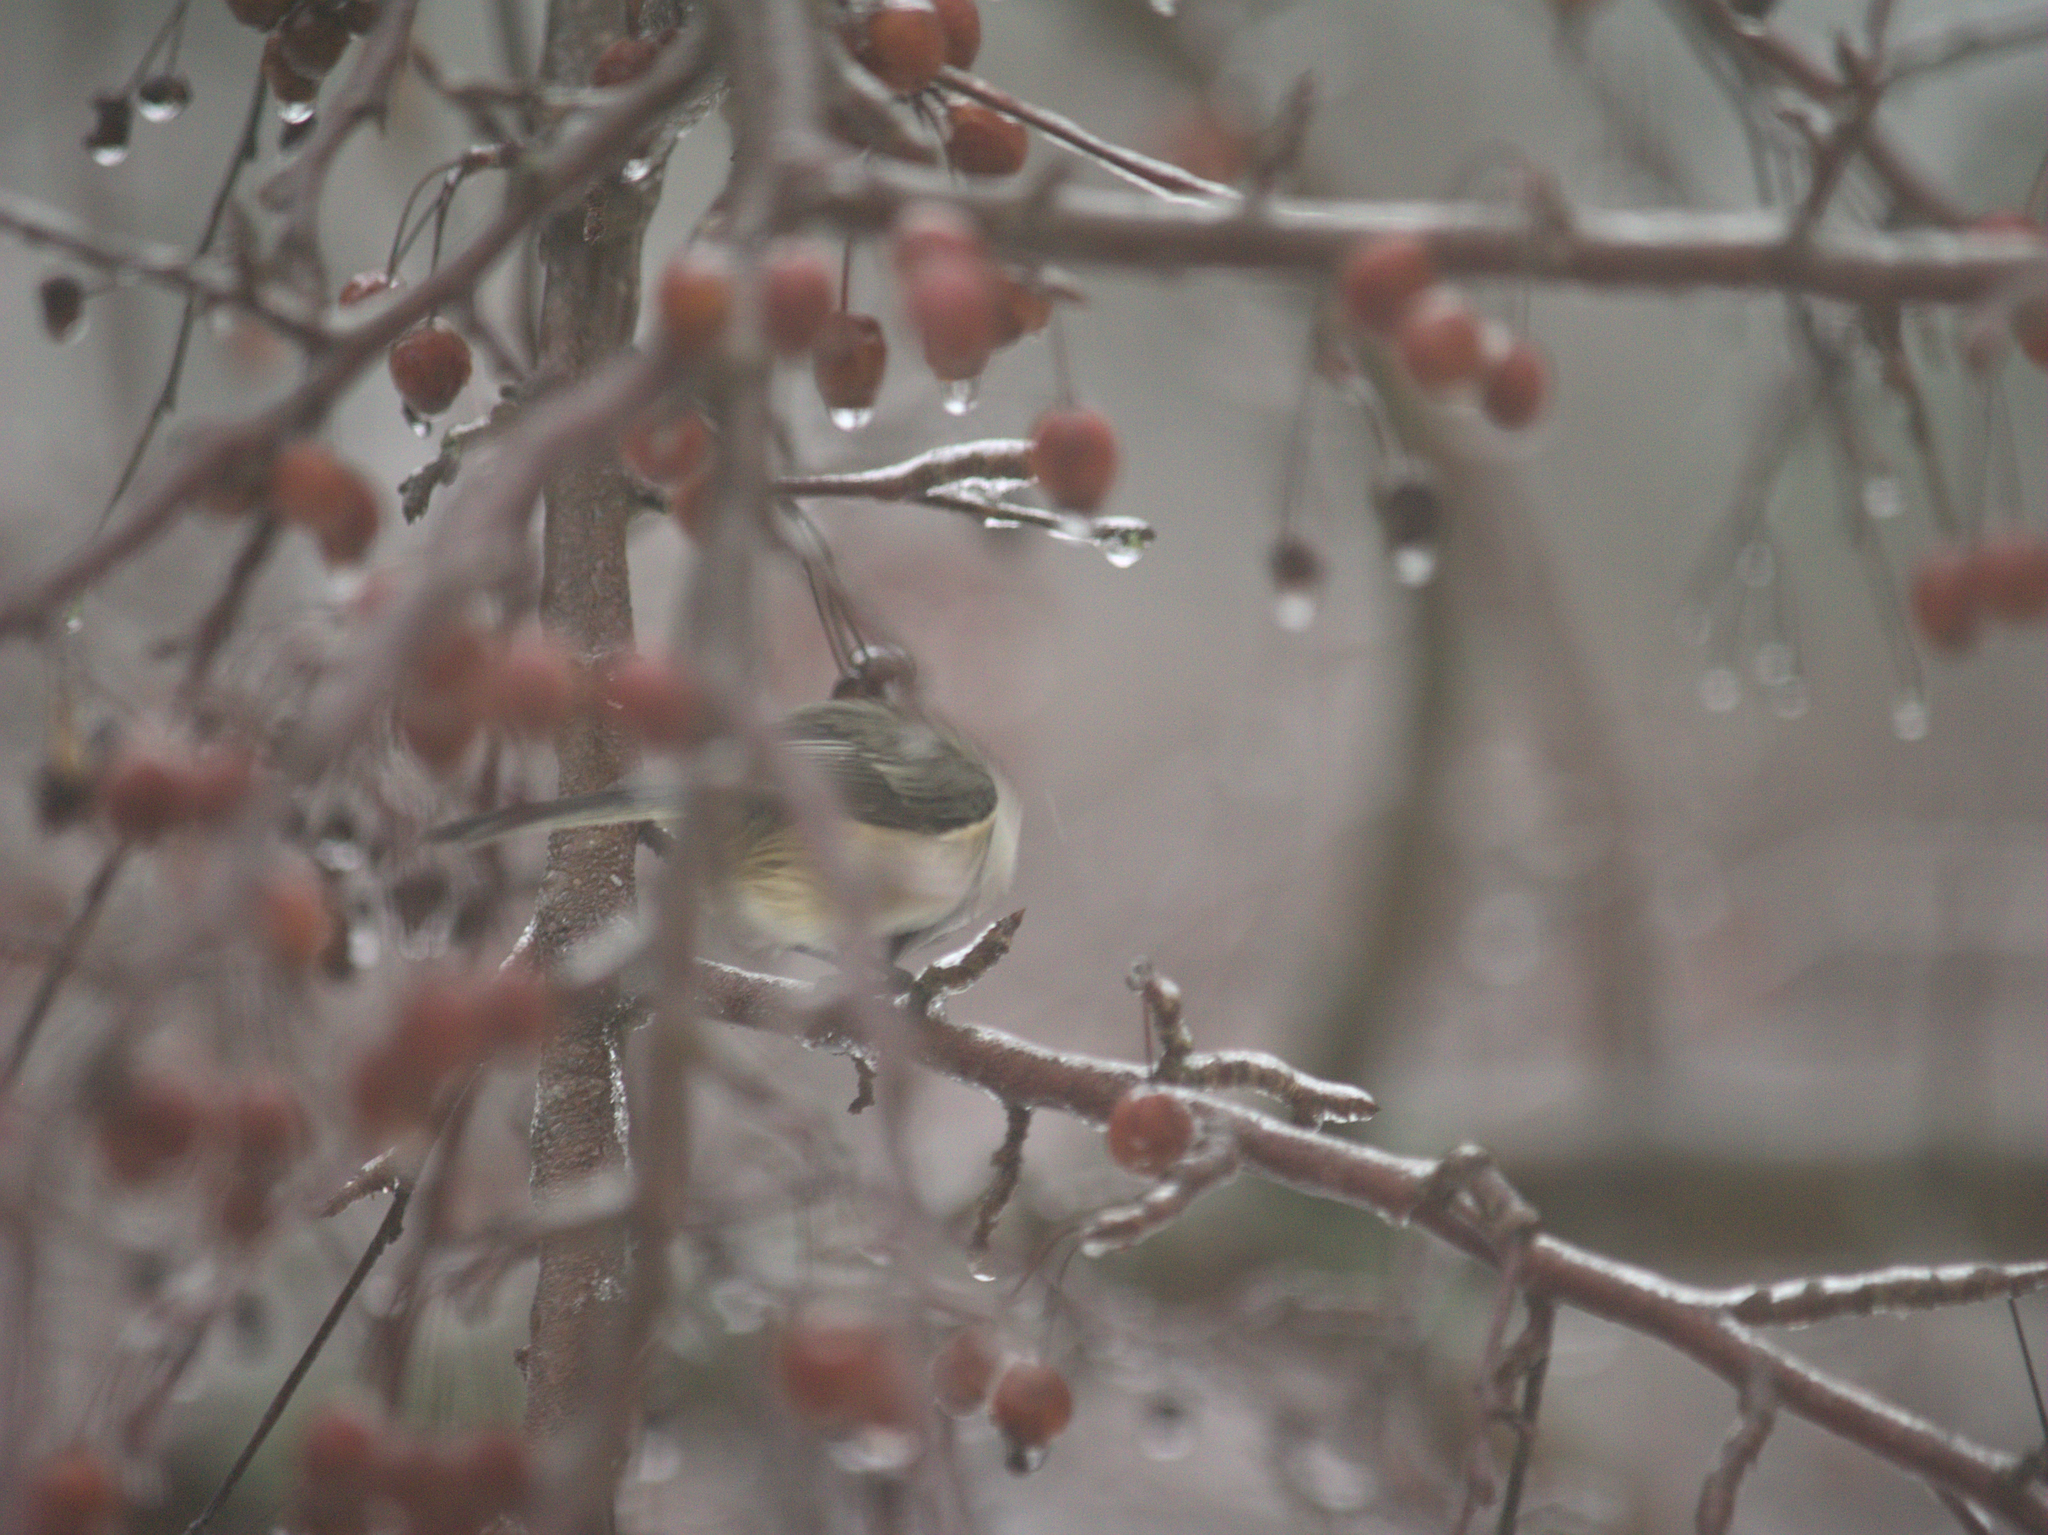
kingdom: Animalia
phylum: Chordata
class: Aves
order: Passeriformes
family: Paridae
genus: Poecile
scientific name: Poecile atricapillus
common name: Black-capped chickadee
